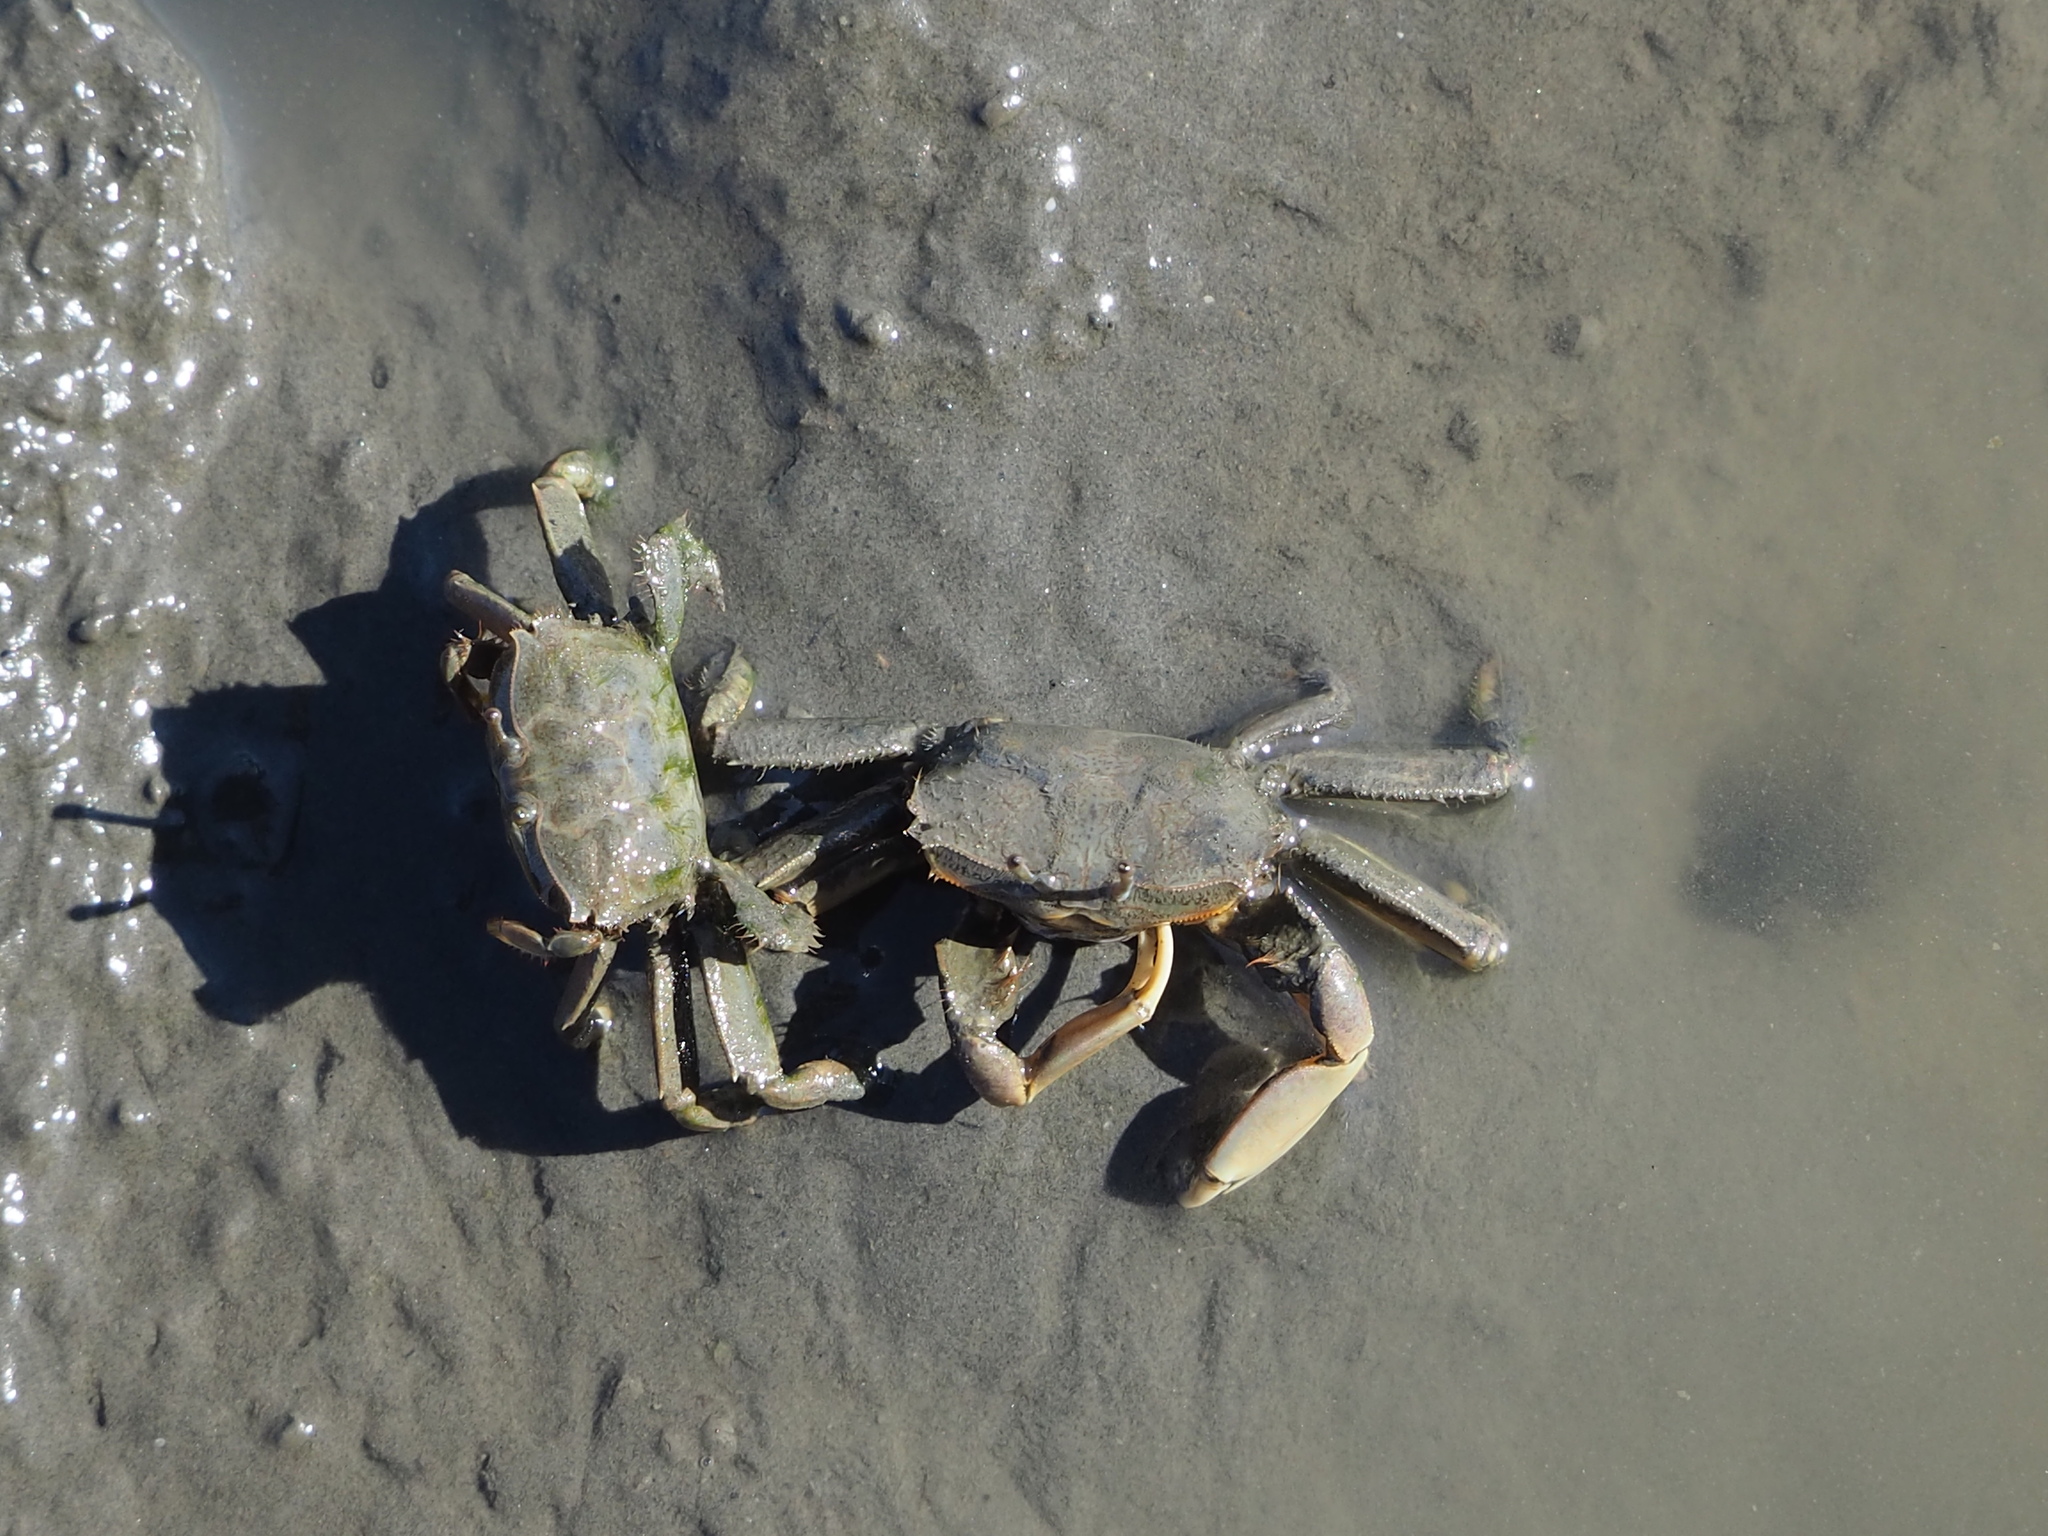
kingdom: Animalia
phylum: Arthropoda
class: Malacostraca
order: Decapoda
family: Macrophthalmidae
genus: Macrophthalmus
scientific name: Macrophthalmus banzai
